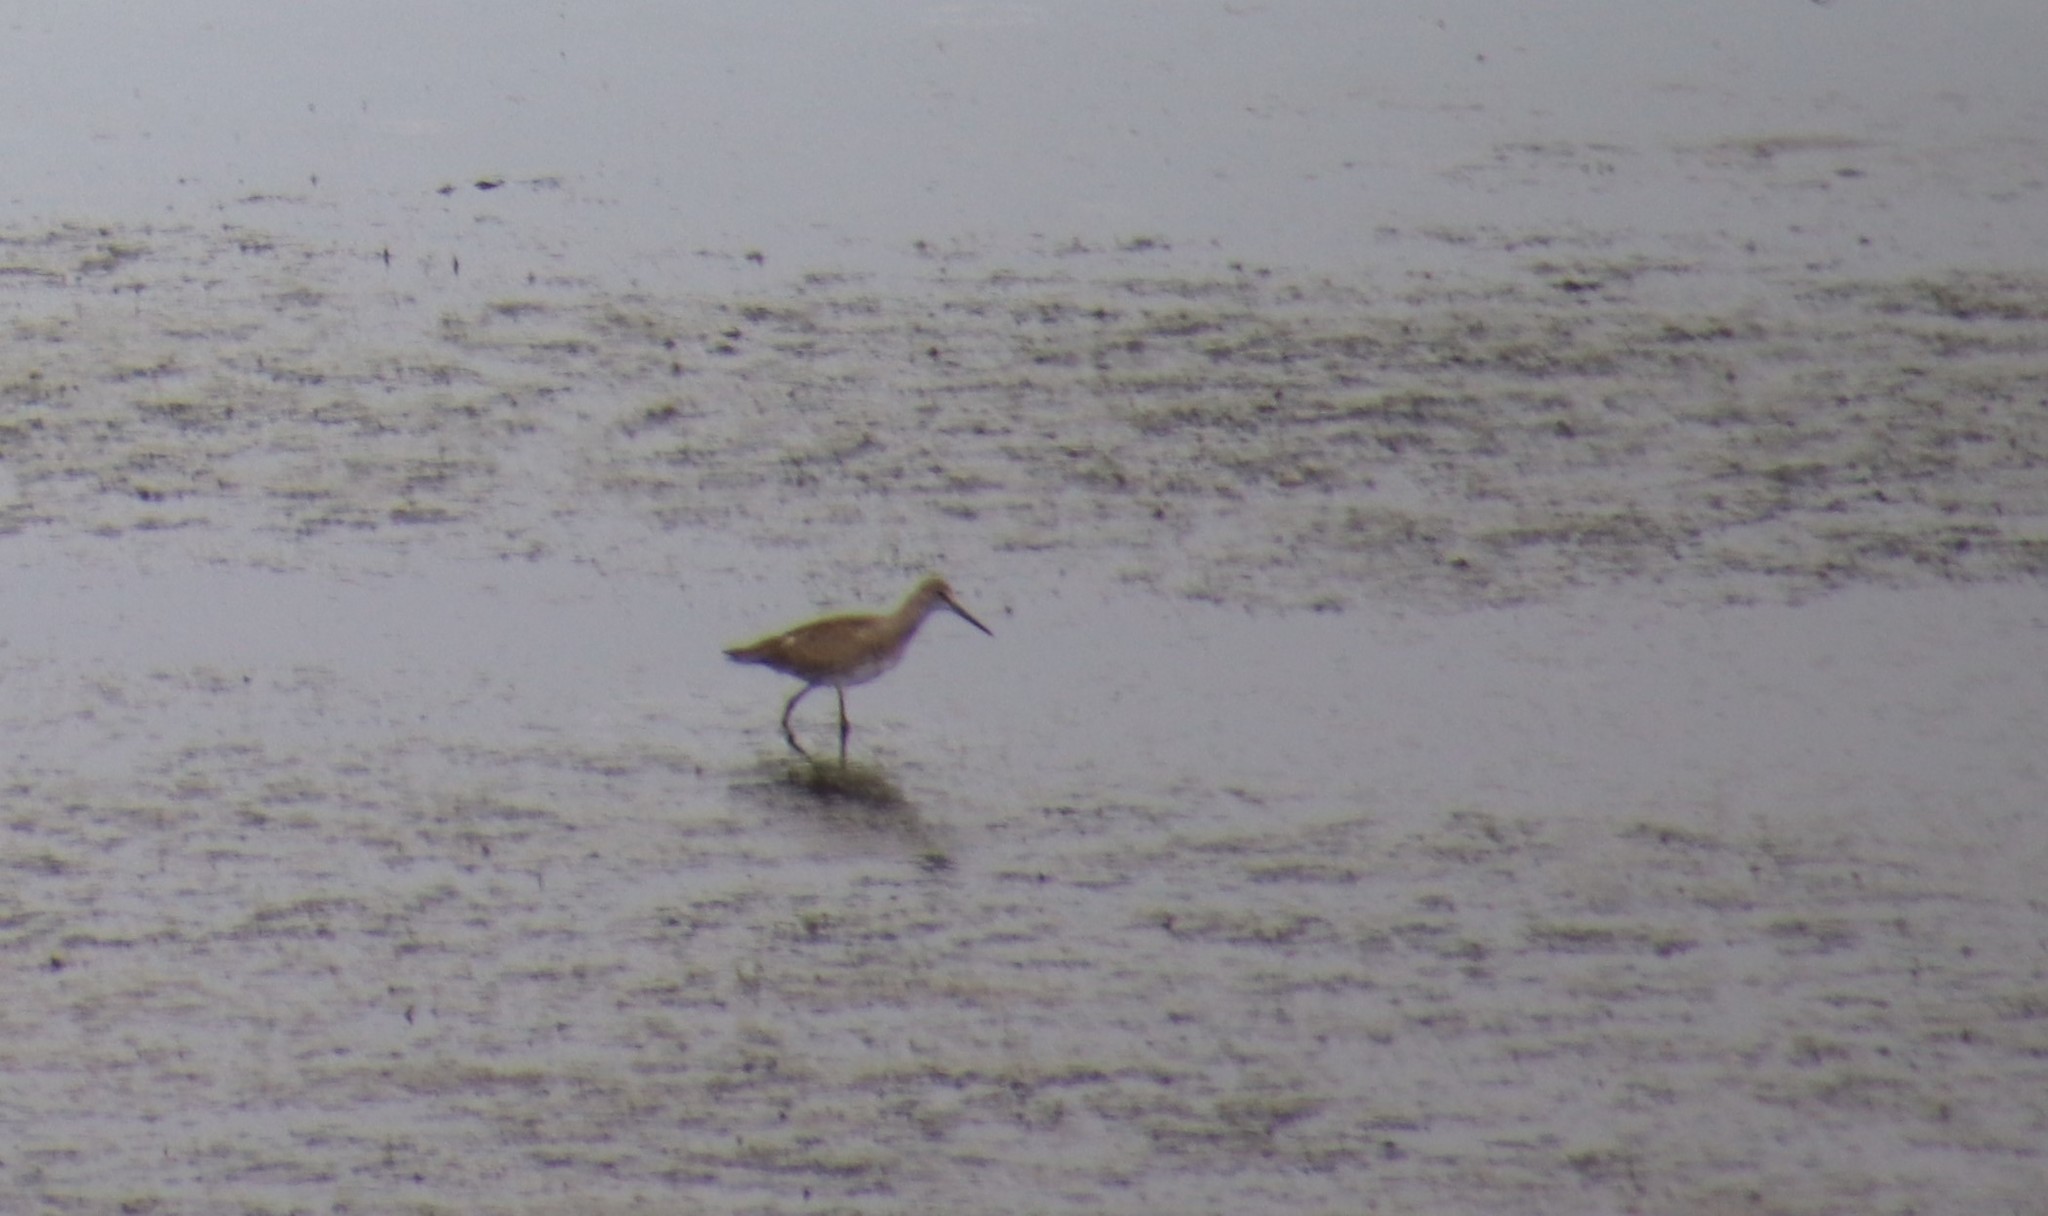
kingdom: Animalia
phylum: Chordata
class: Aves
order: Charadriiformes
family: Scolopacidae
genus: Tringa
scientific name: Tringa semipalmata
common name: Willet
